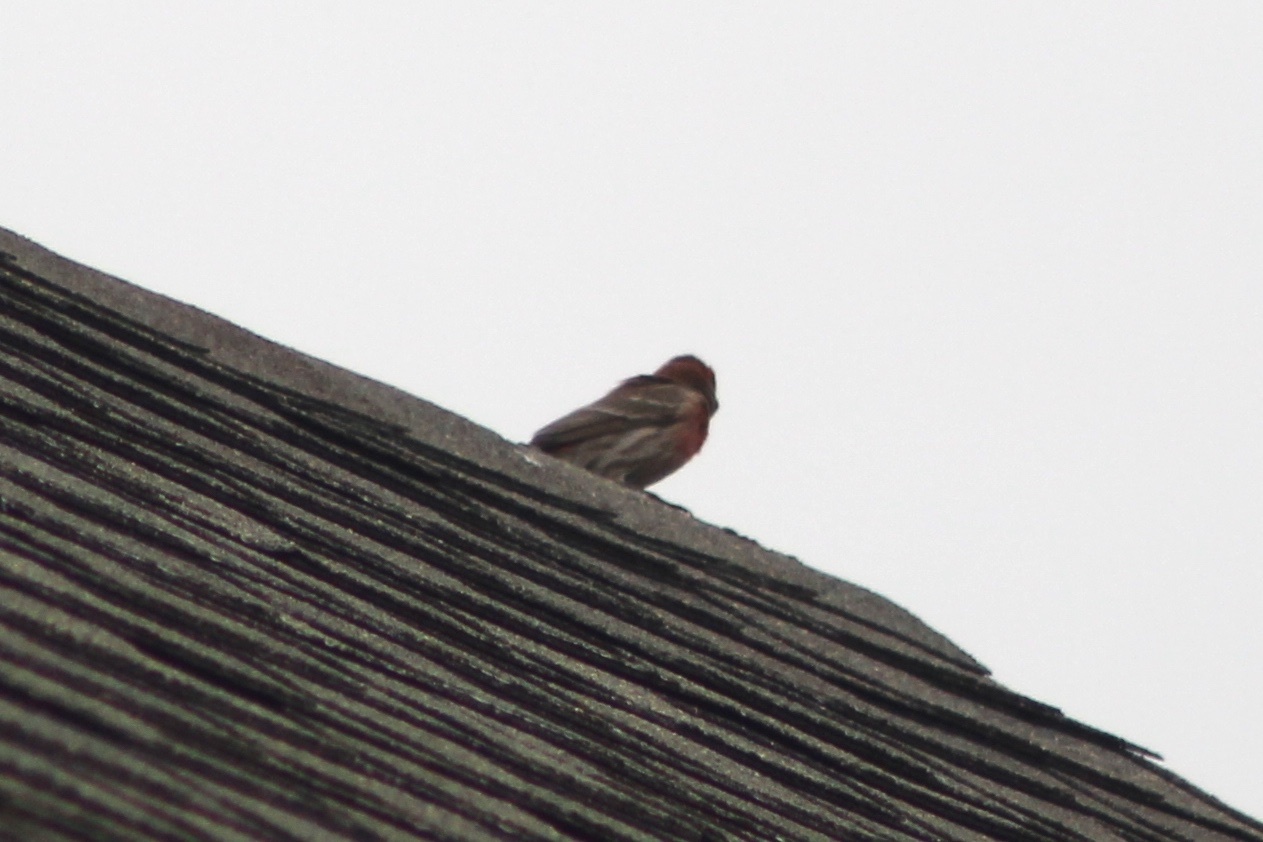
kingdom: Animalia
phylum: Chordata
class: Aves
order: Passeriformes
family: Fringillidae
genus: Haemorhous
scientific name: Haemorhous mexicanus
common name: House finch
